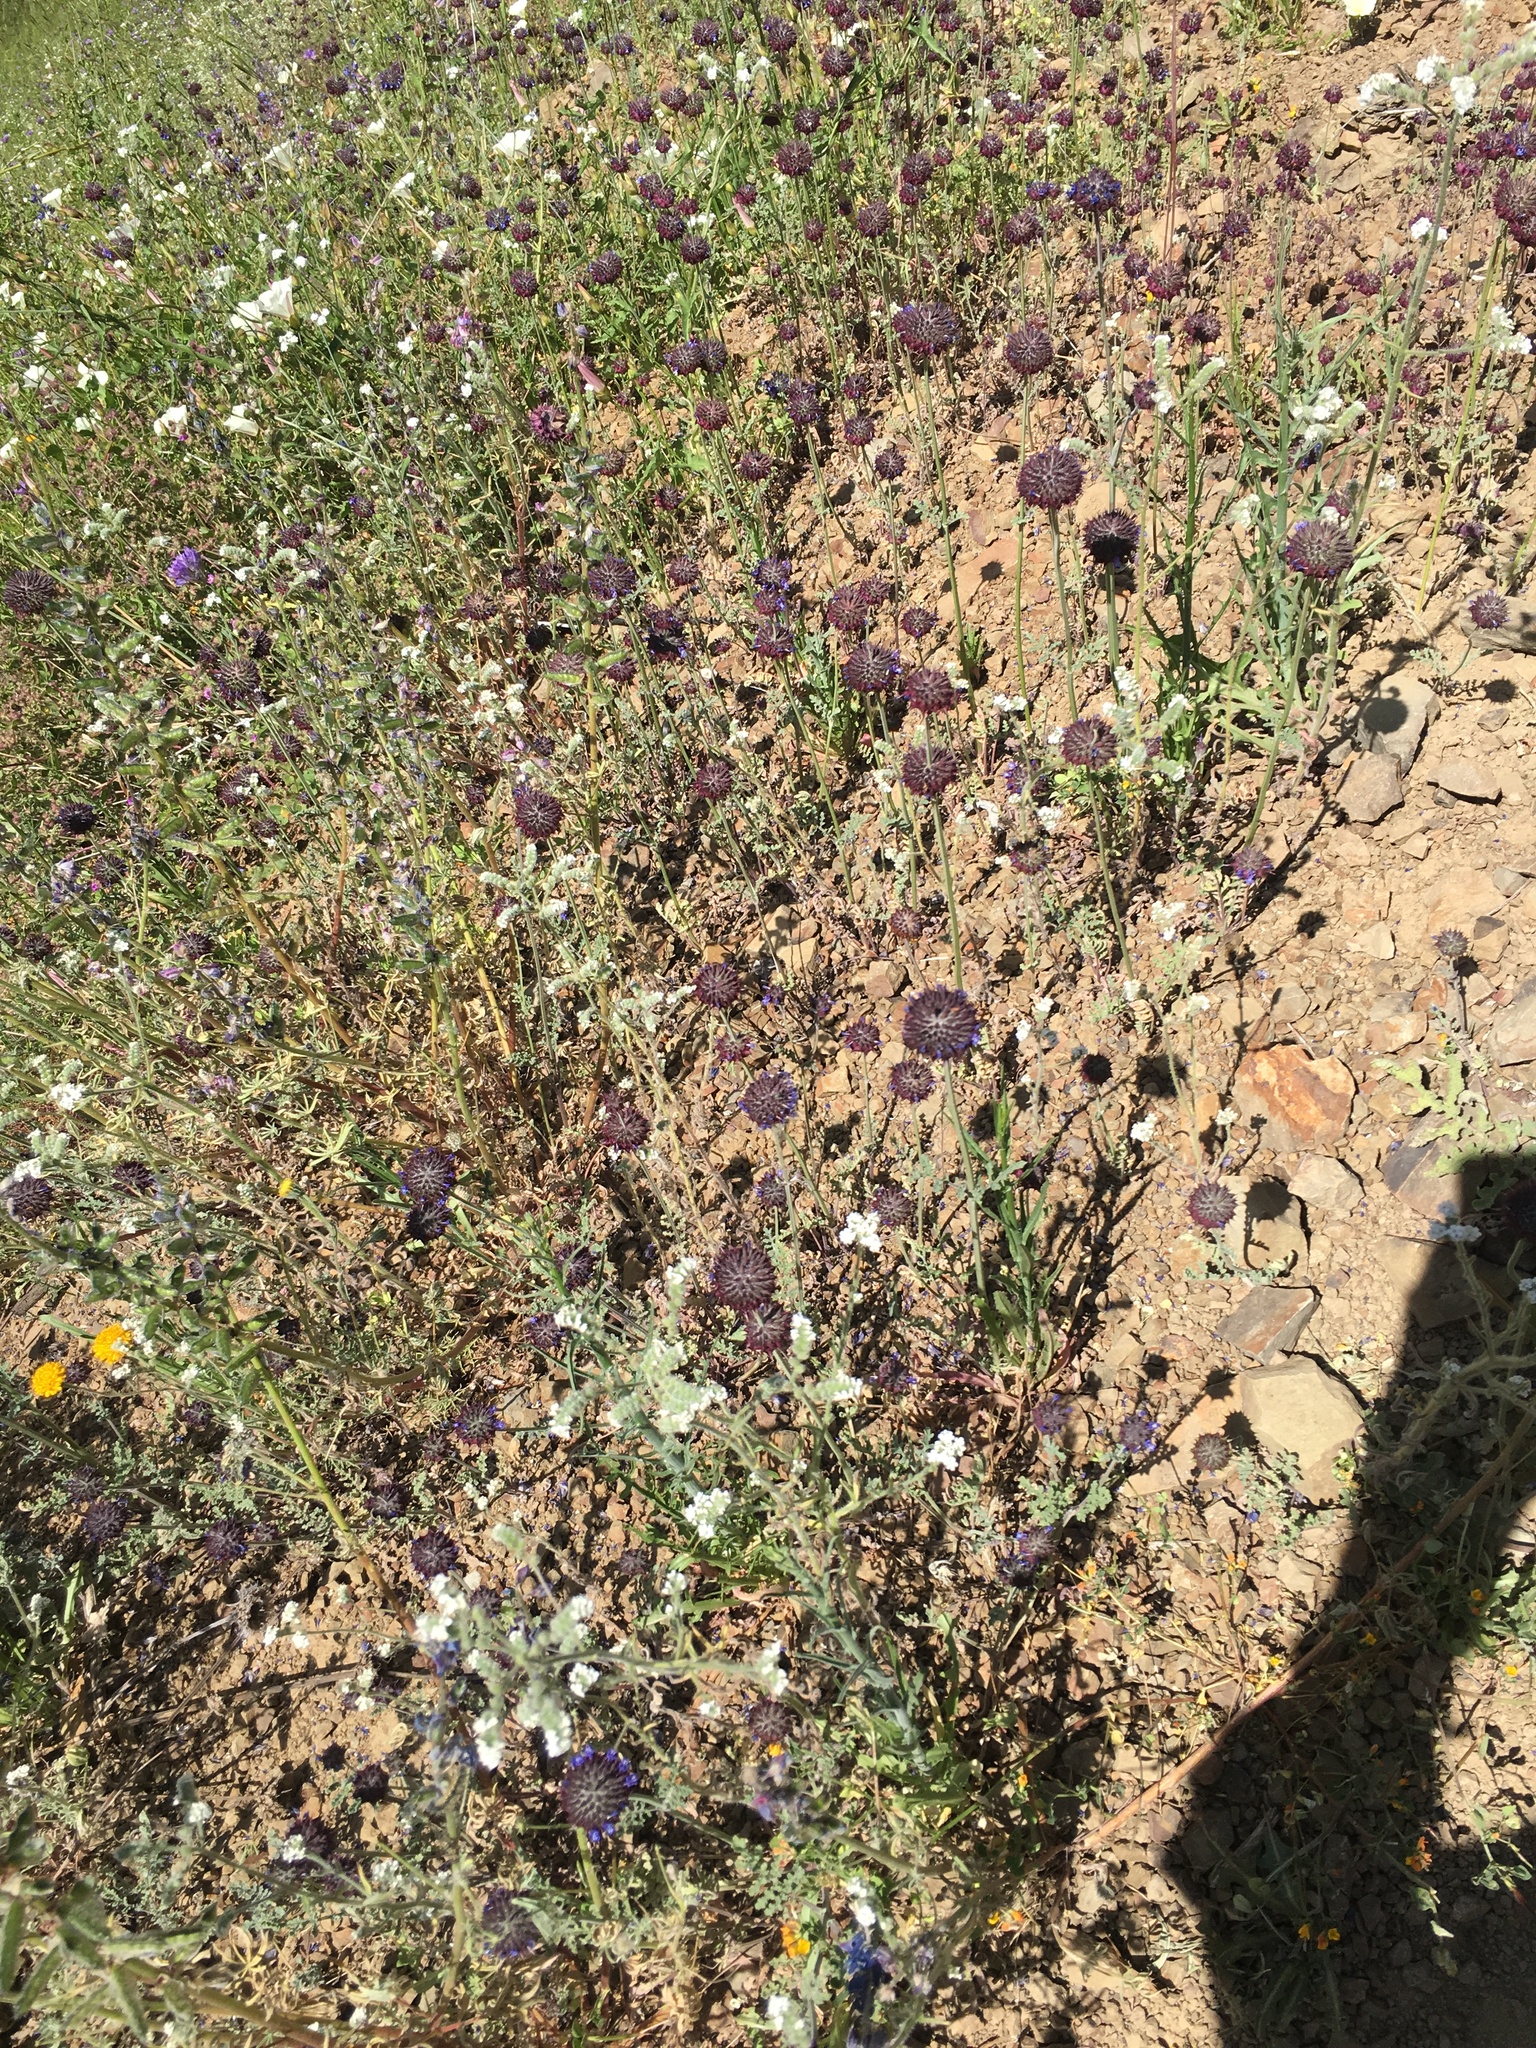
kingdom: Plantae
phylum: Tracheophyta
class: Magnoliopsida
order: Lamiales
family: Lamiaceae
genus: Salvia
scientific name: Salvia columbariae
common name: Chia
